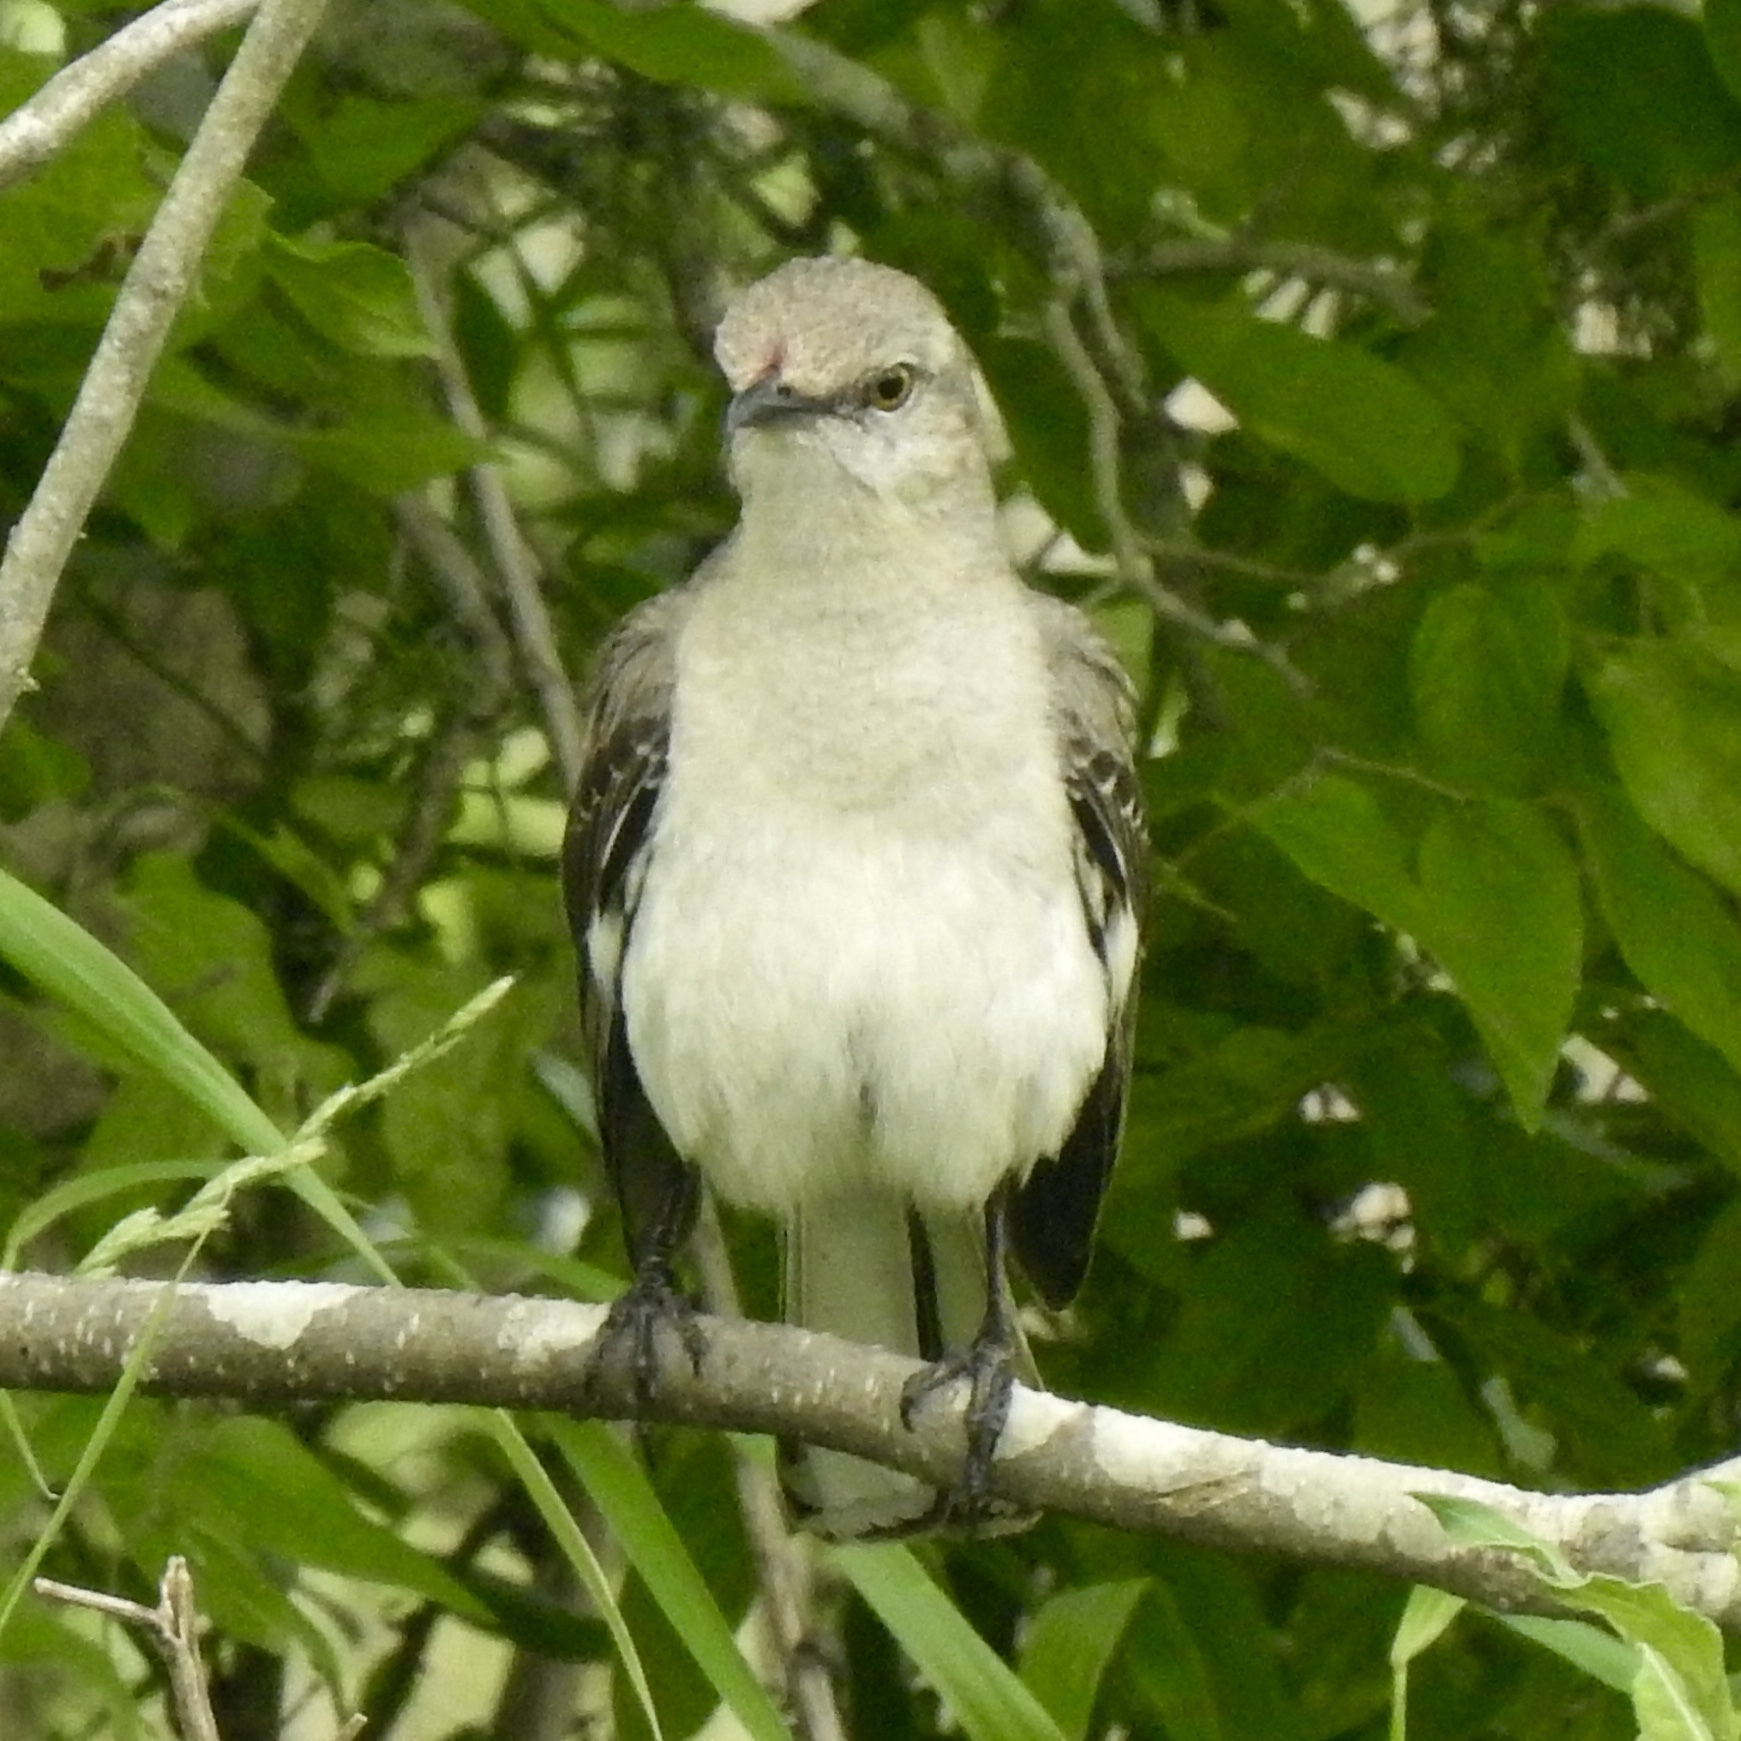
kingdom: Animalia
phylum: Chordata
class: Aves
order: Passeriformes
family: Mimidae
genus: Mimus
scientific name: Mimus polyglottos
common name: Northern mockingbird
